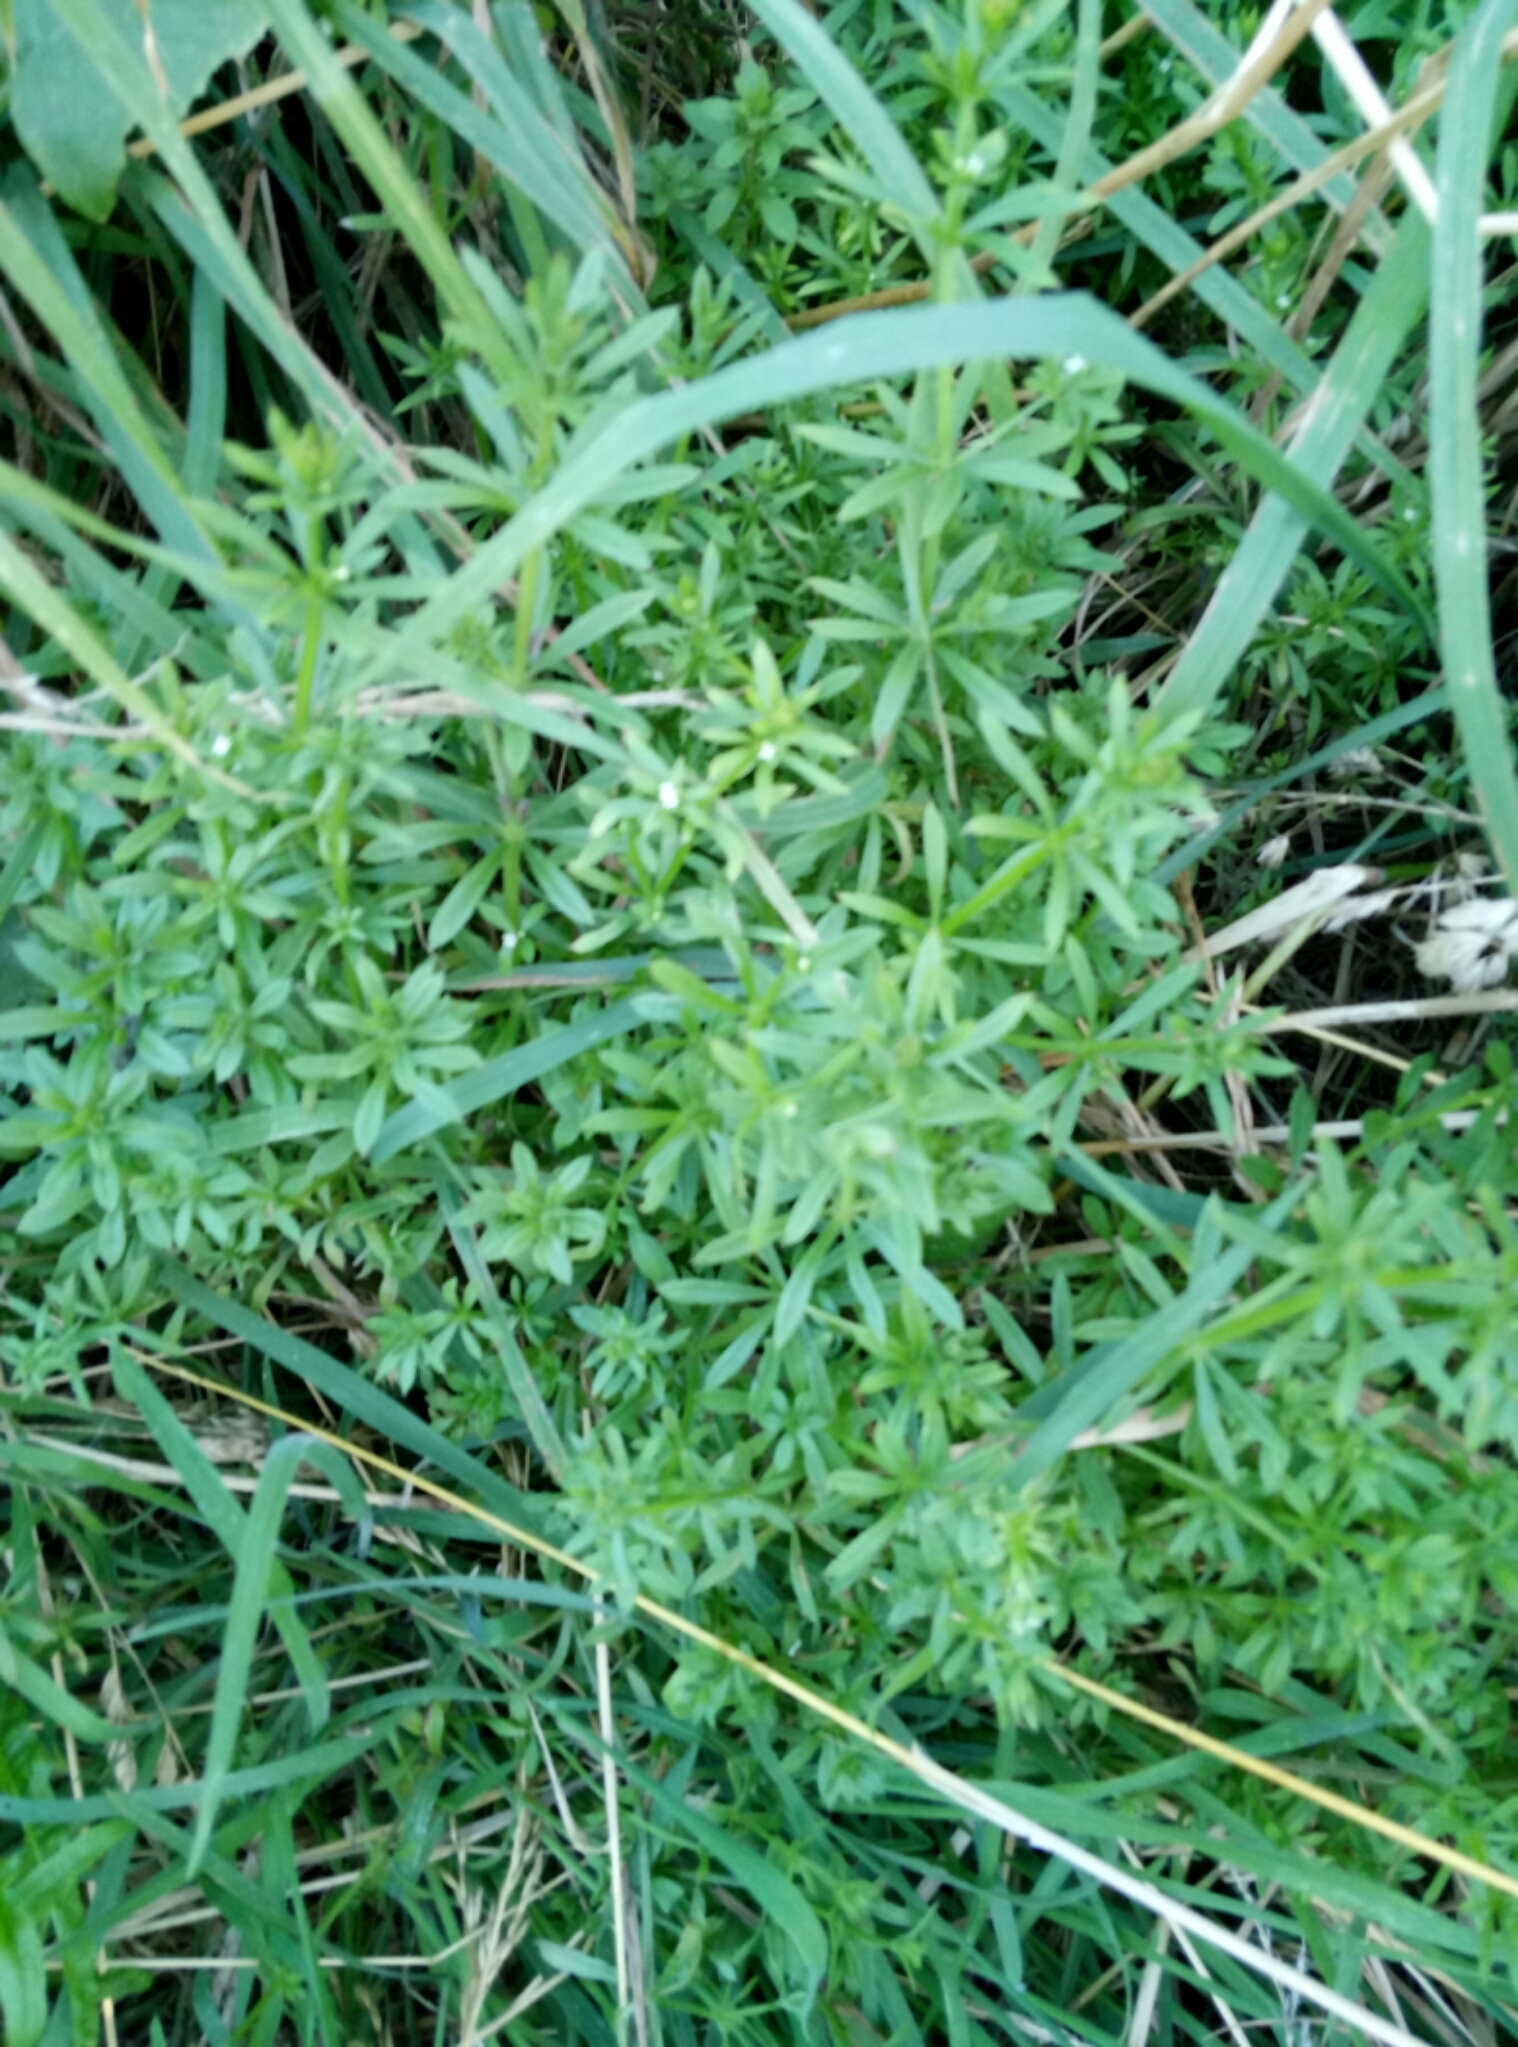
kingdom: Plantae
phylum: Tracheophyta
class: Magnoliopsida
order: Gentianales
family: Rubiaceae
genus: Galium
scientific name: Galium aparine
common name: Cleavers
